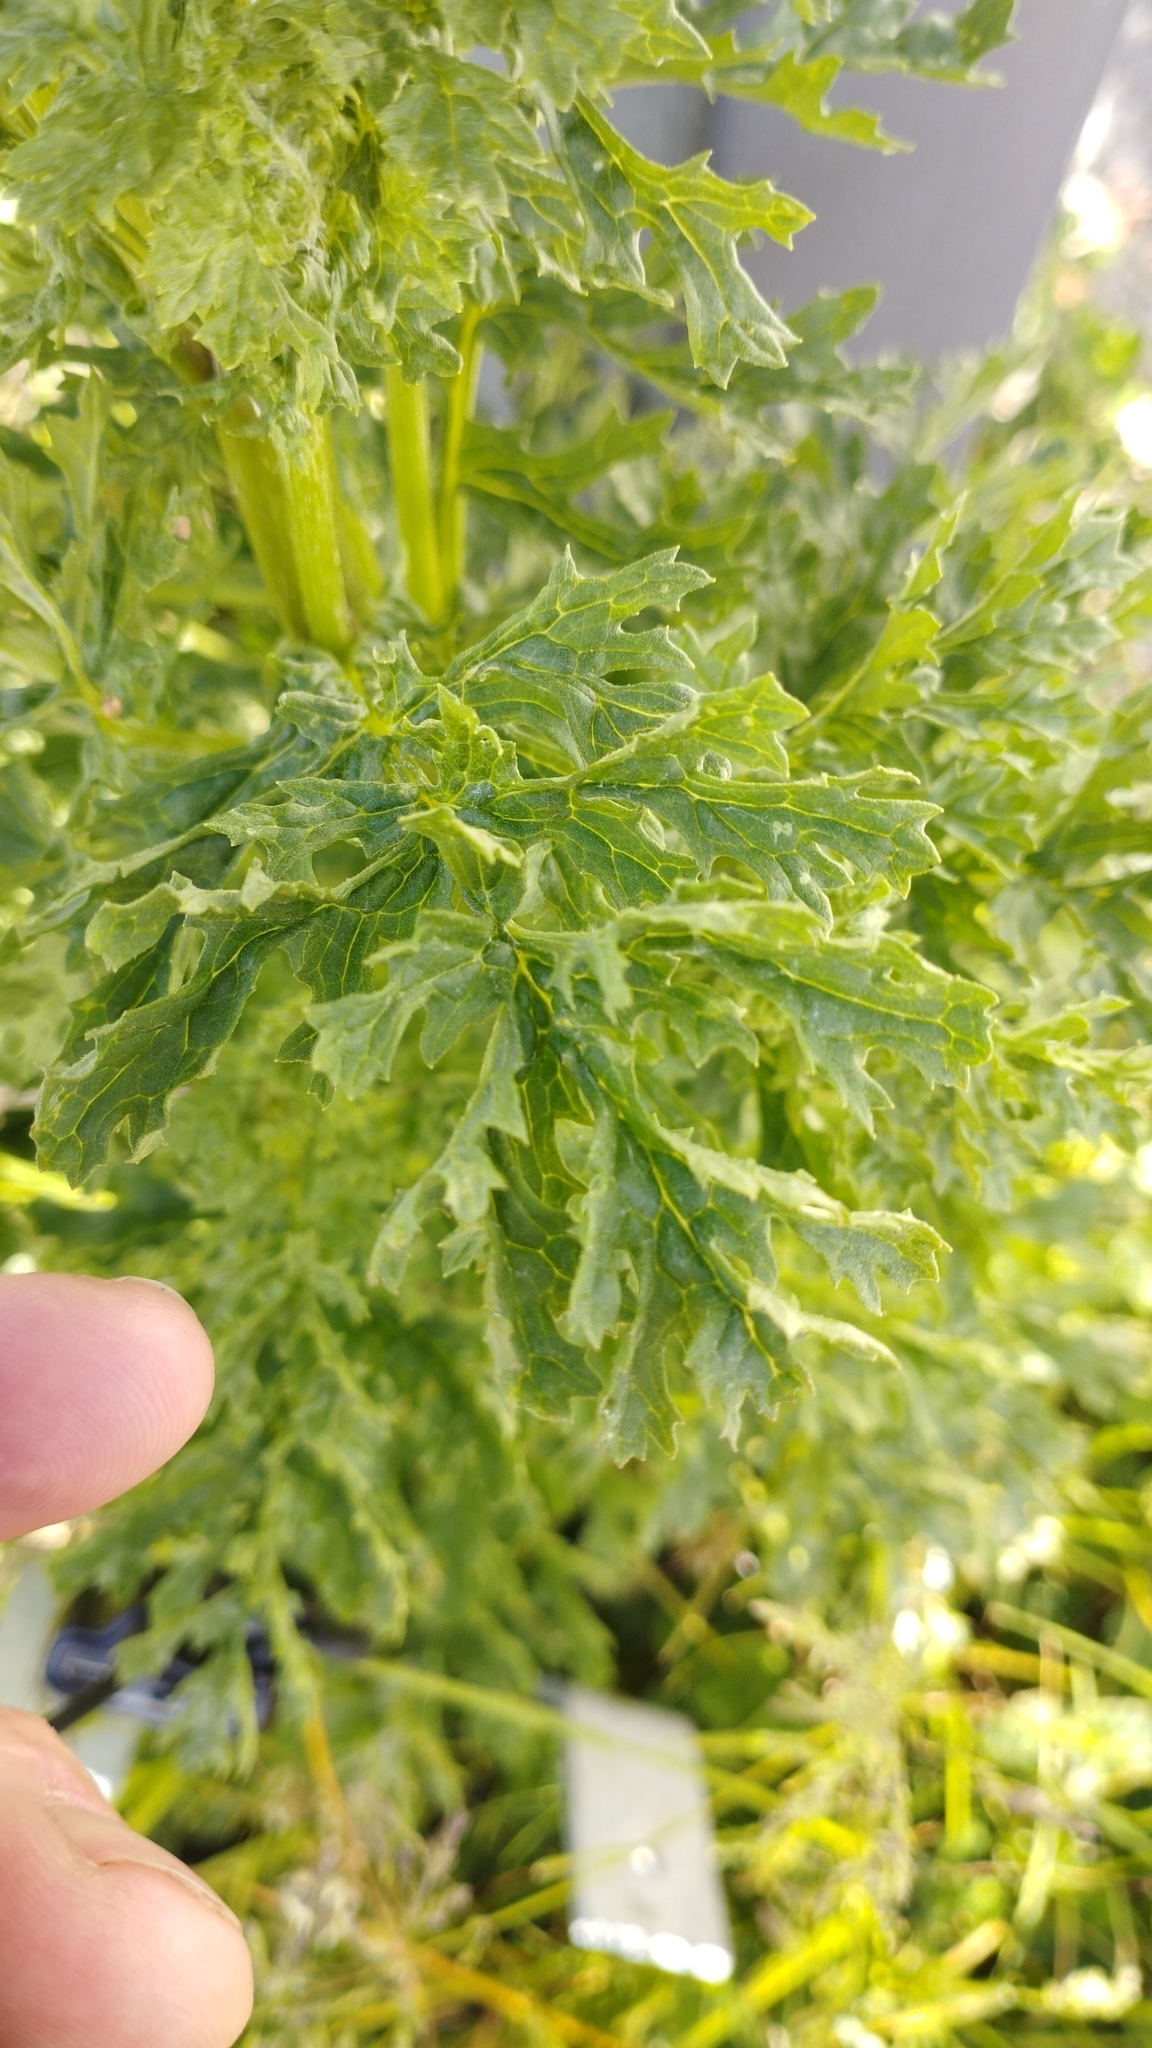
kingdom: Plantae
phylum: Tracheophyta
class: Magnoliopsida
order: Asterales
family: Asteraceae
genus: Jacobaea
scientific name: Jacobaea vulgaris
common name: Stinking willie
